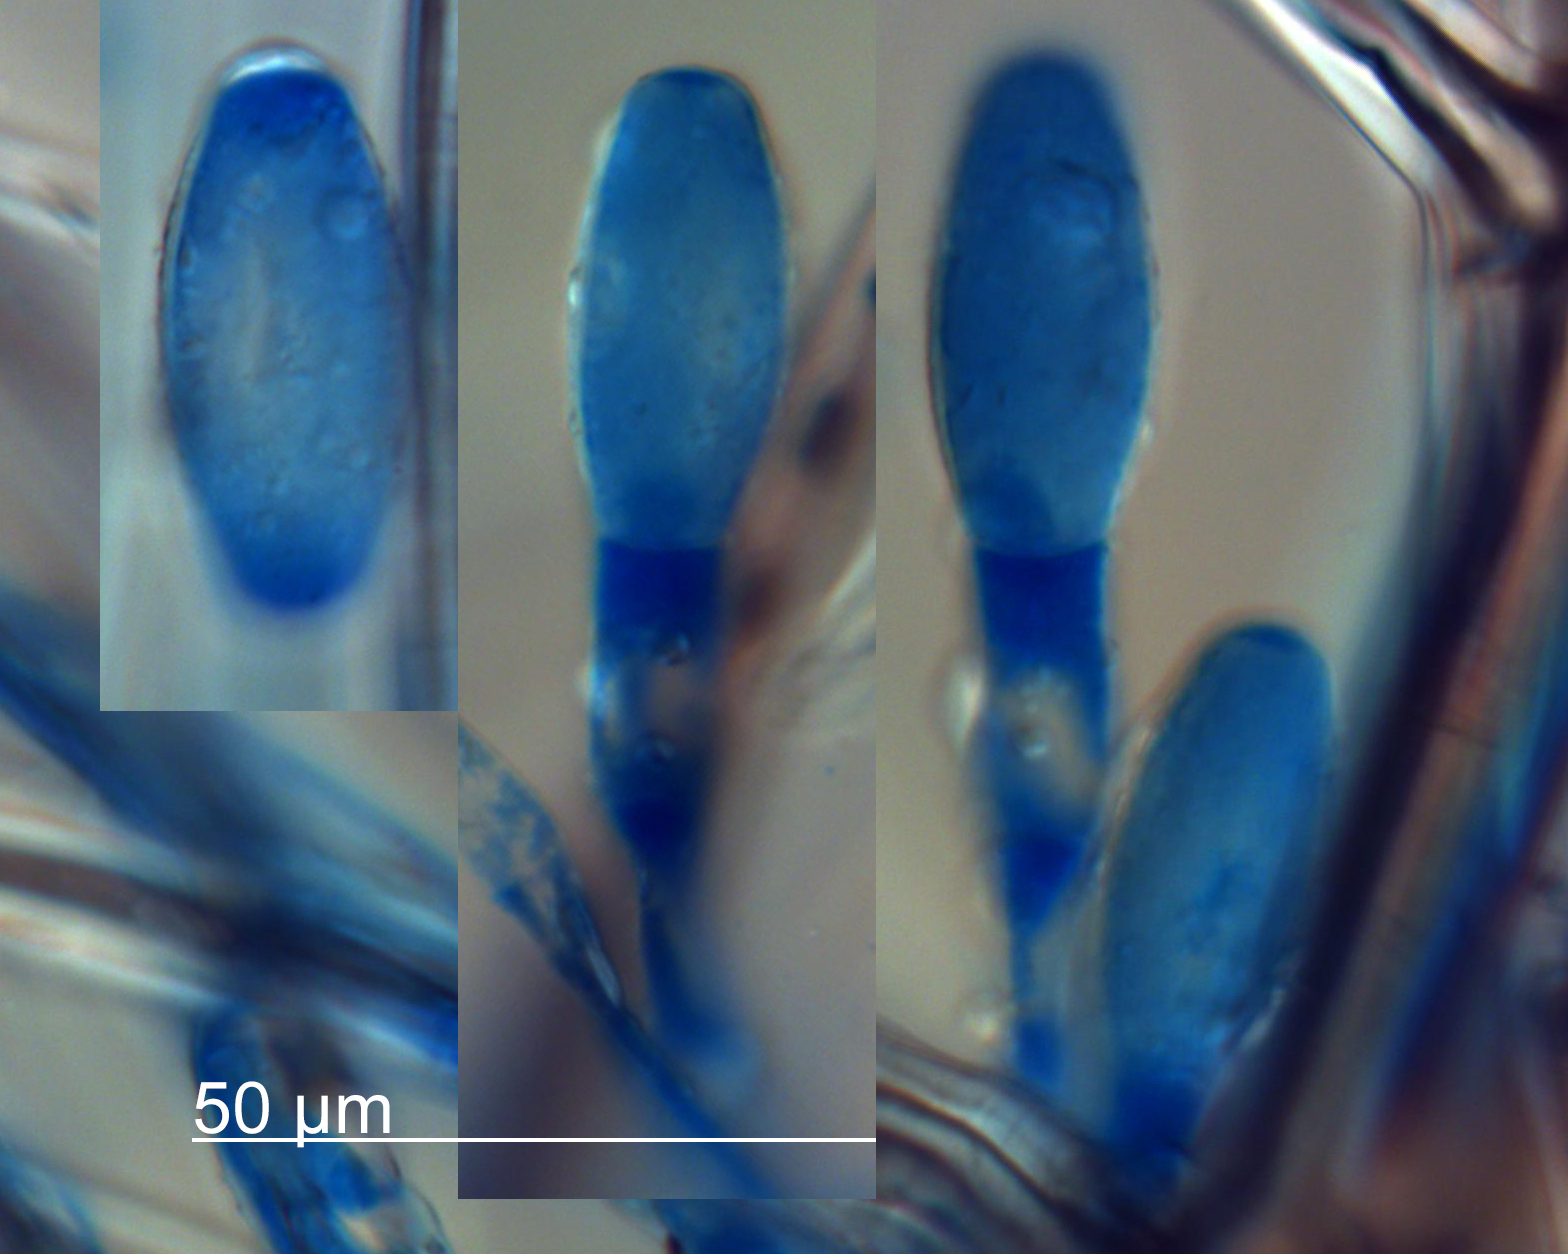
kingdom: Fungi
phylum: Ascomycota
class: Leotiomycetes
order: Helotiales
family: Erysiphaceae
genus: Erysiphe
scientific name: Erysiphe platani
